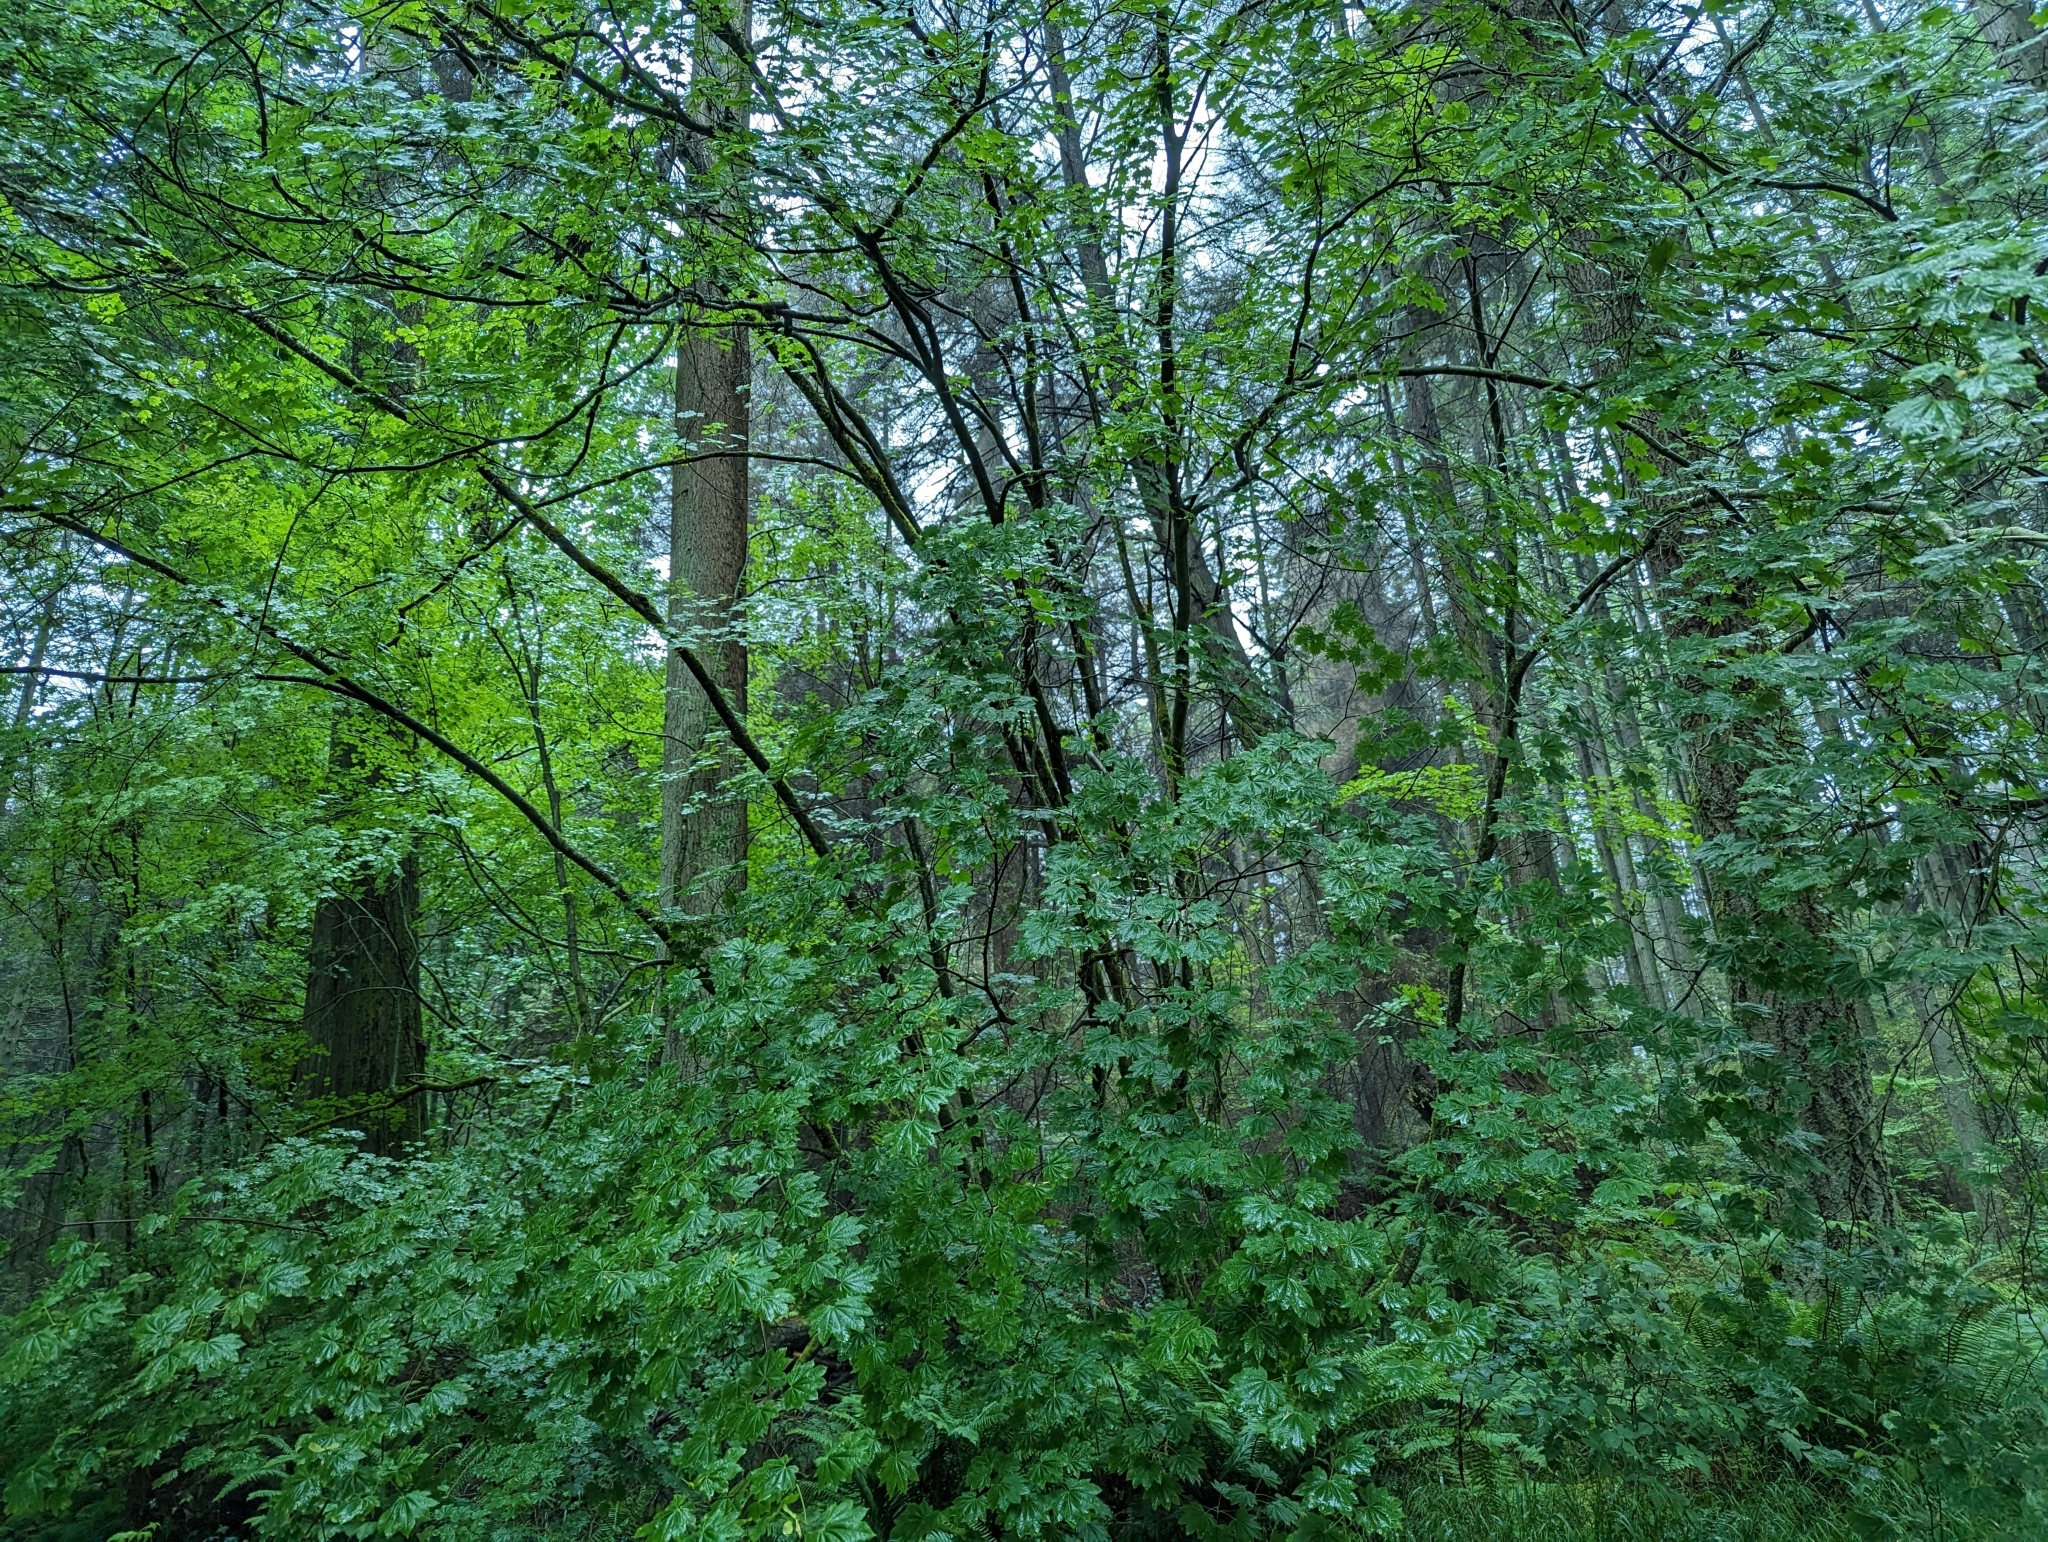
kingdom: Plantae
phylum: Tracheophyta
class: Magnoliopsida
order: Sapindales
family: Sapindaceae
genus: Acer
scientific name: Acer circinatum
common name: Vine maple
